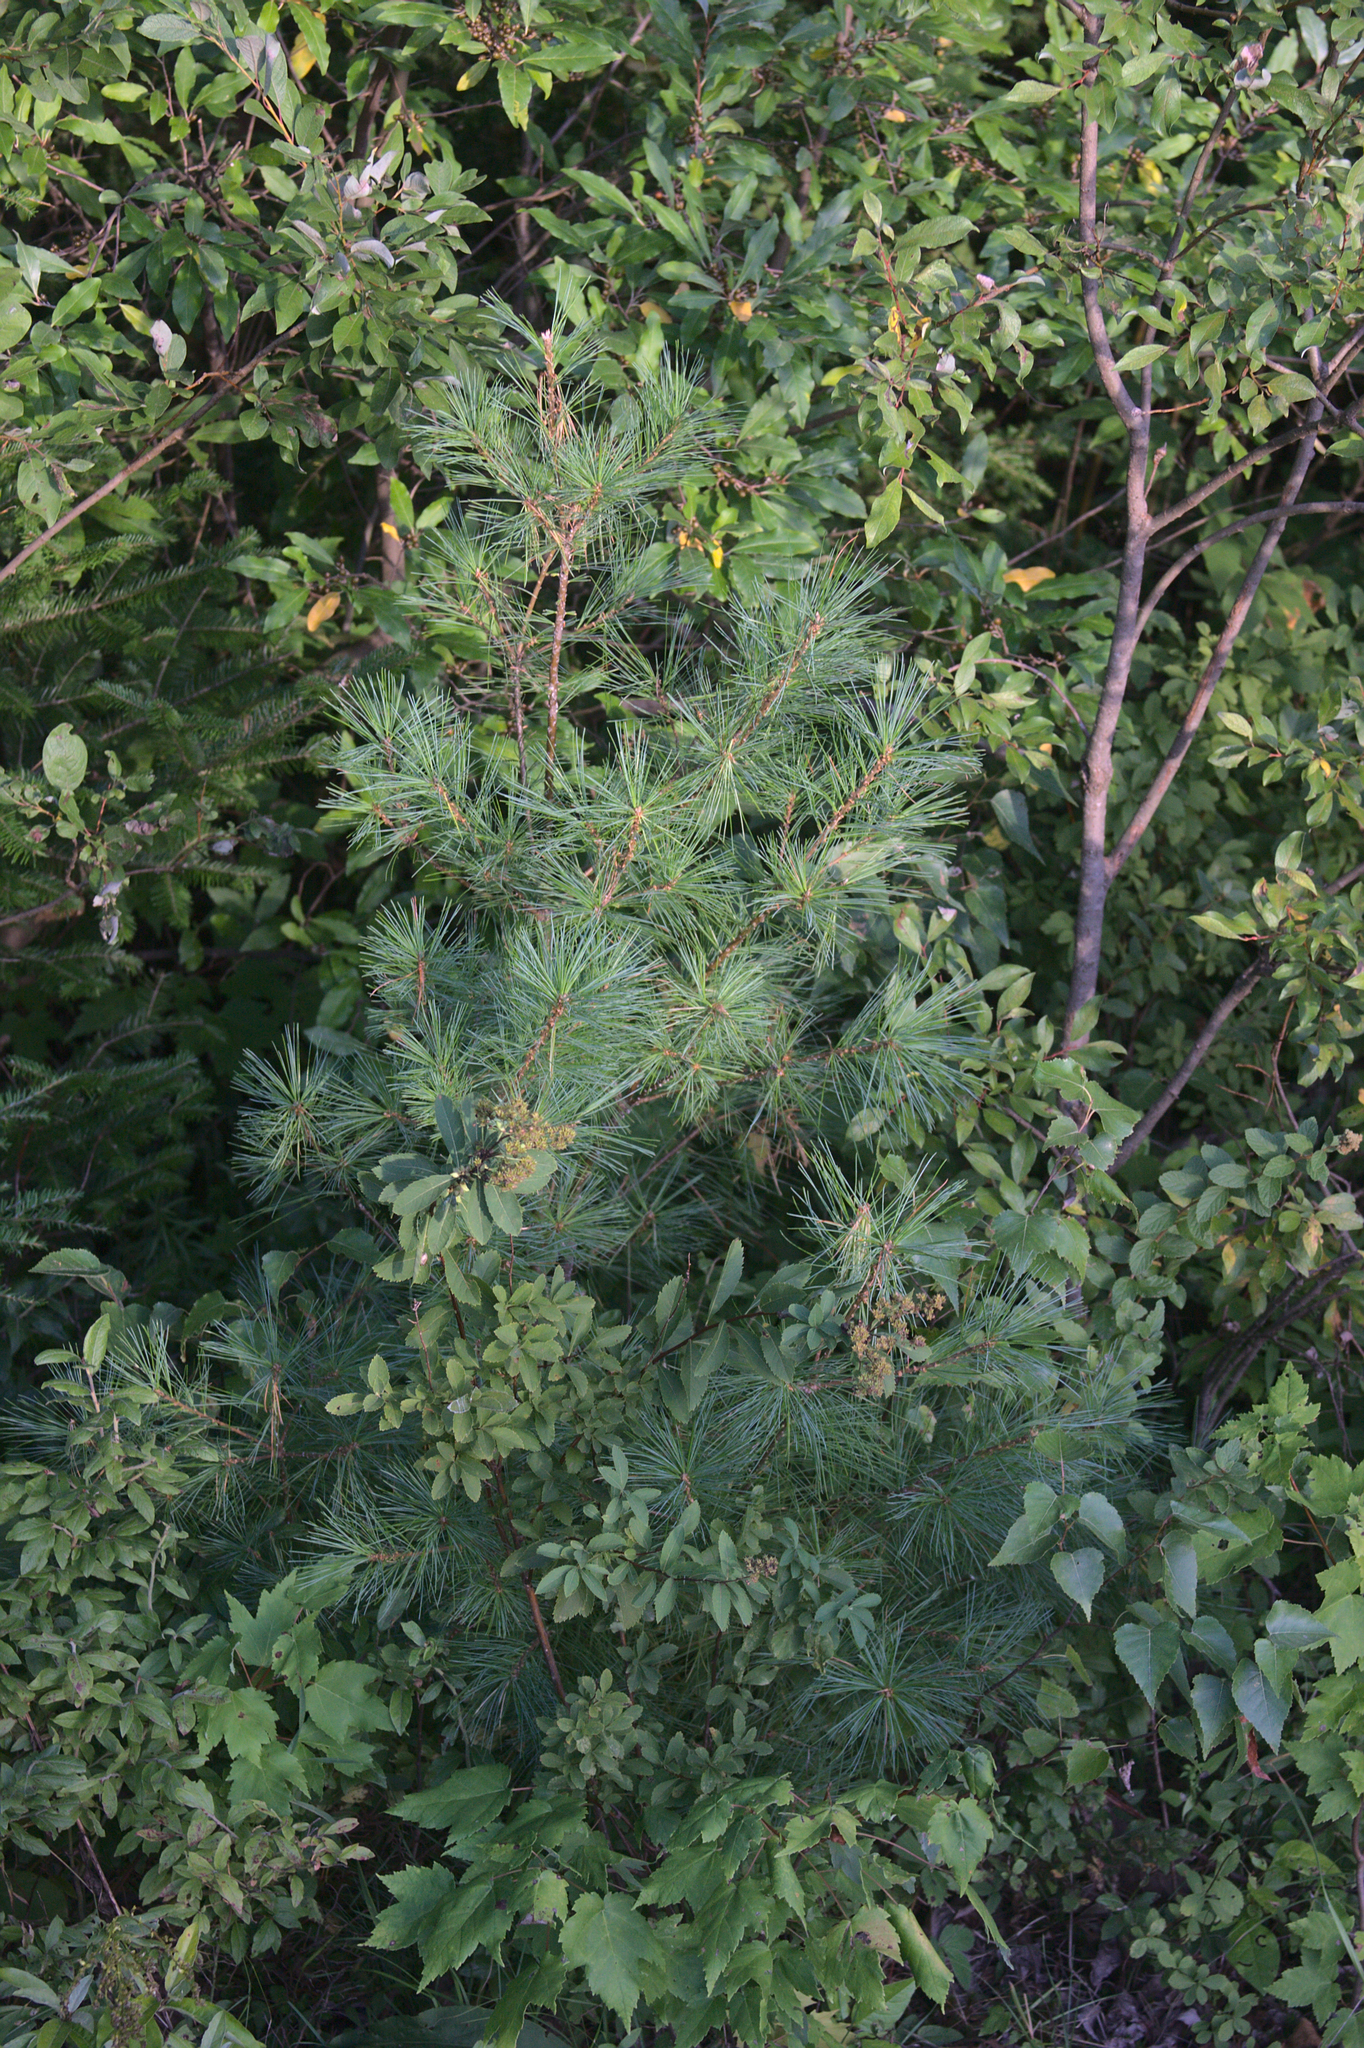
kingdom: Plantae
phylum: Tracheophyta
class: Pinopsida
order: Pinales
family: Pinaceae
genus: Pinus
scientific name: Pinus strobus
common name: Weymouth pine
